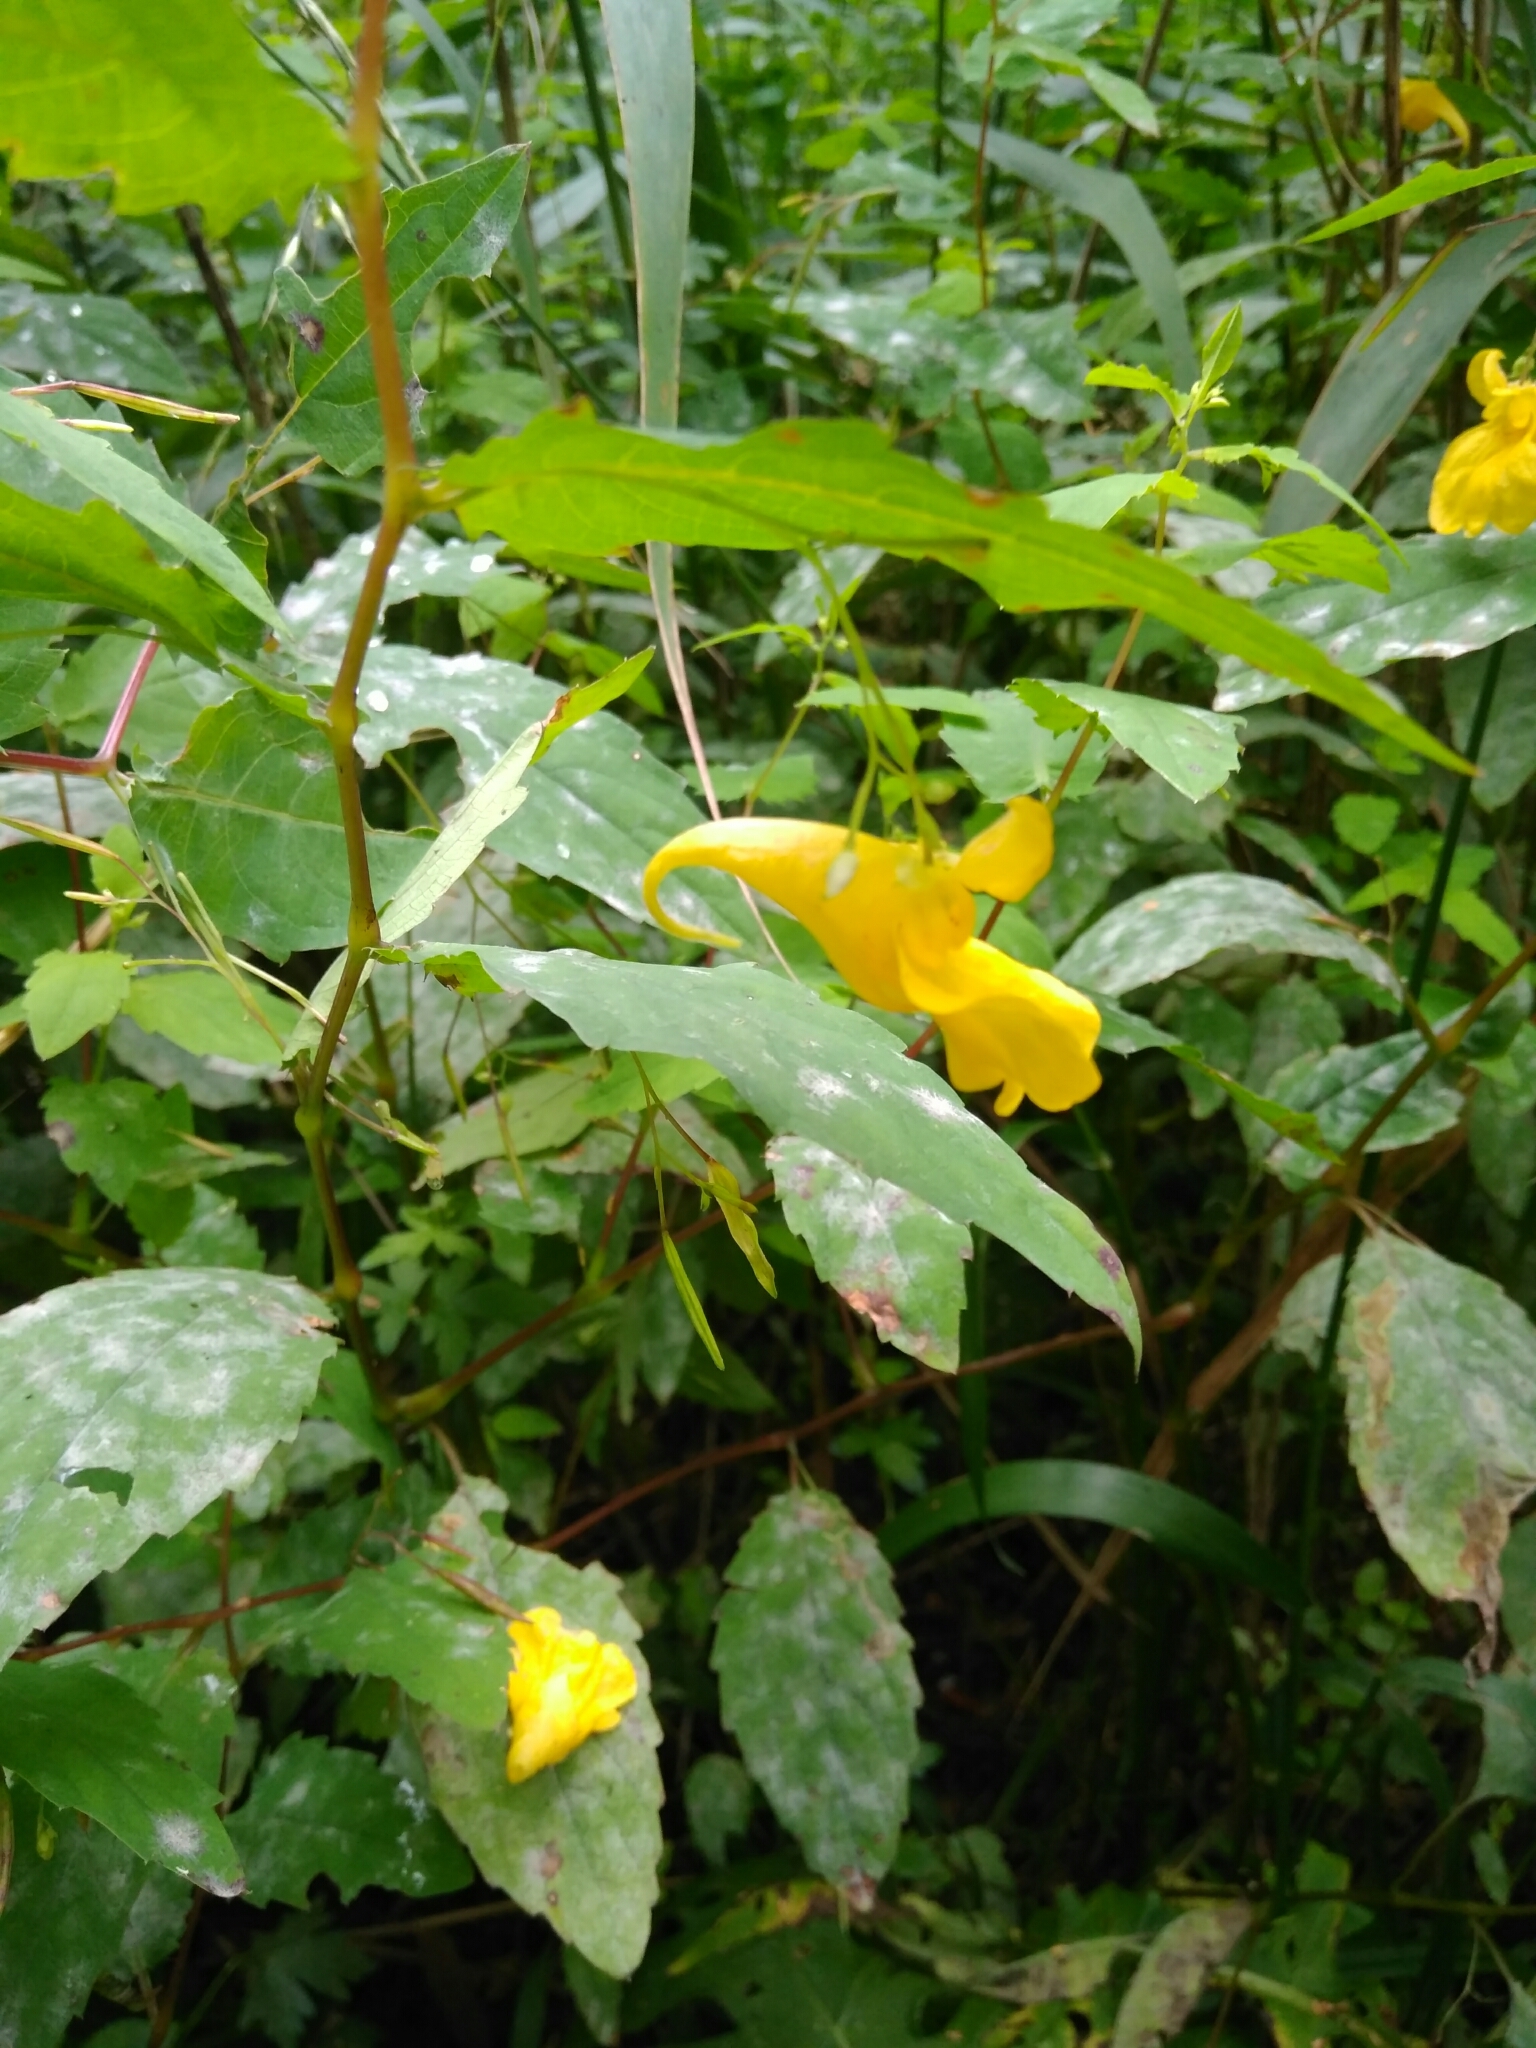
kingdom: Plantae
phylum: Tracheophyta
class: Magnoliopsida
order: Ericales
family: Balsaminaceae
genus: Impatiens
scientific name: Impatiens noli-tangere
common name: Touch-me-not balsam
